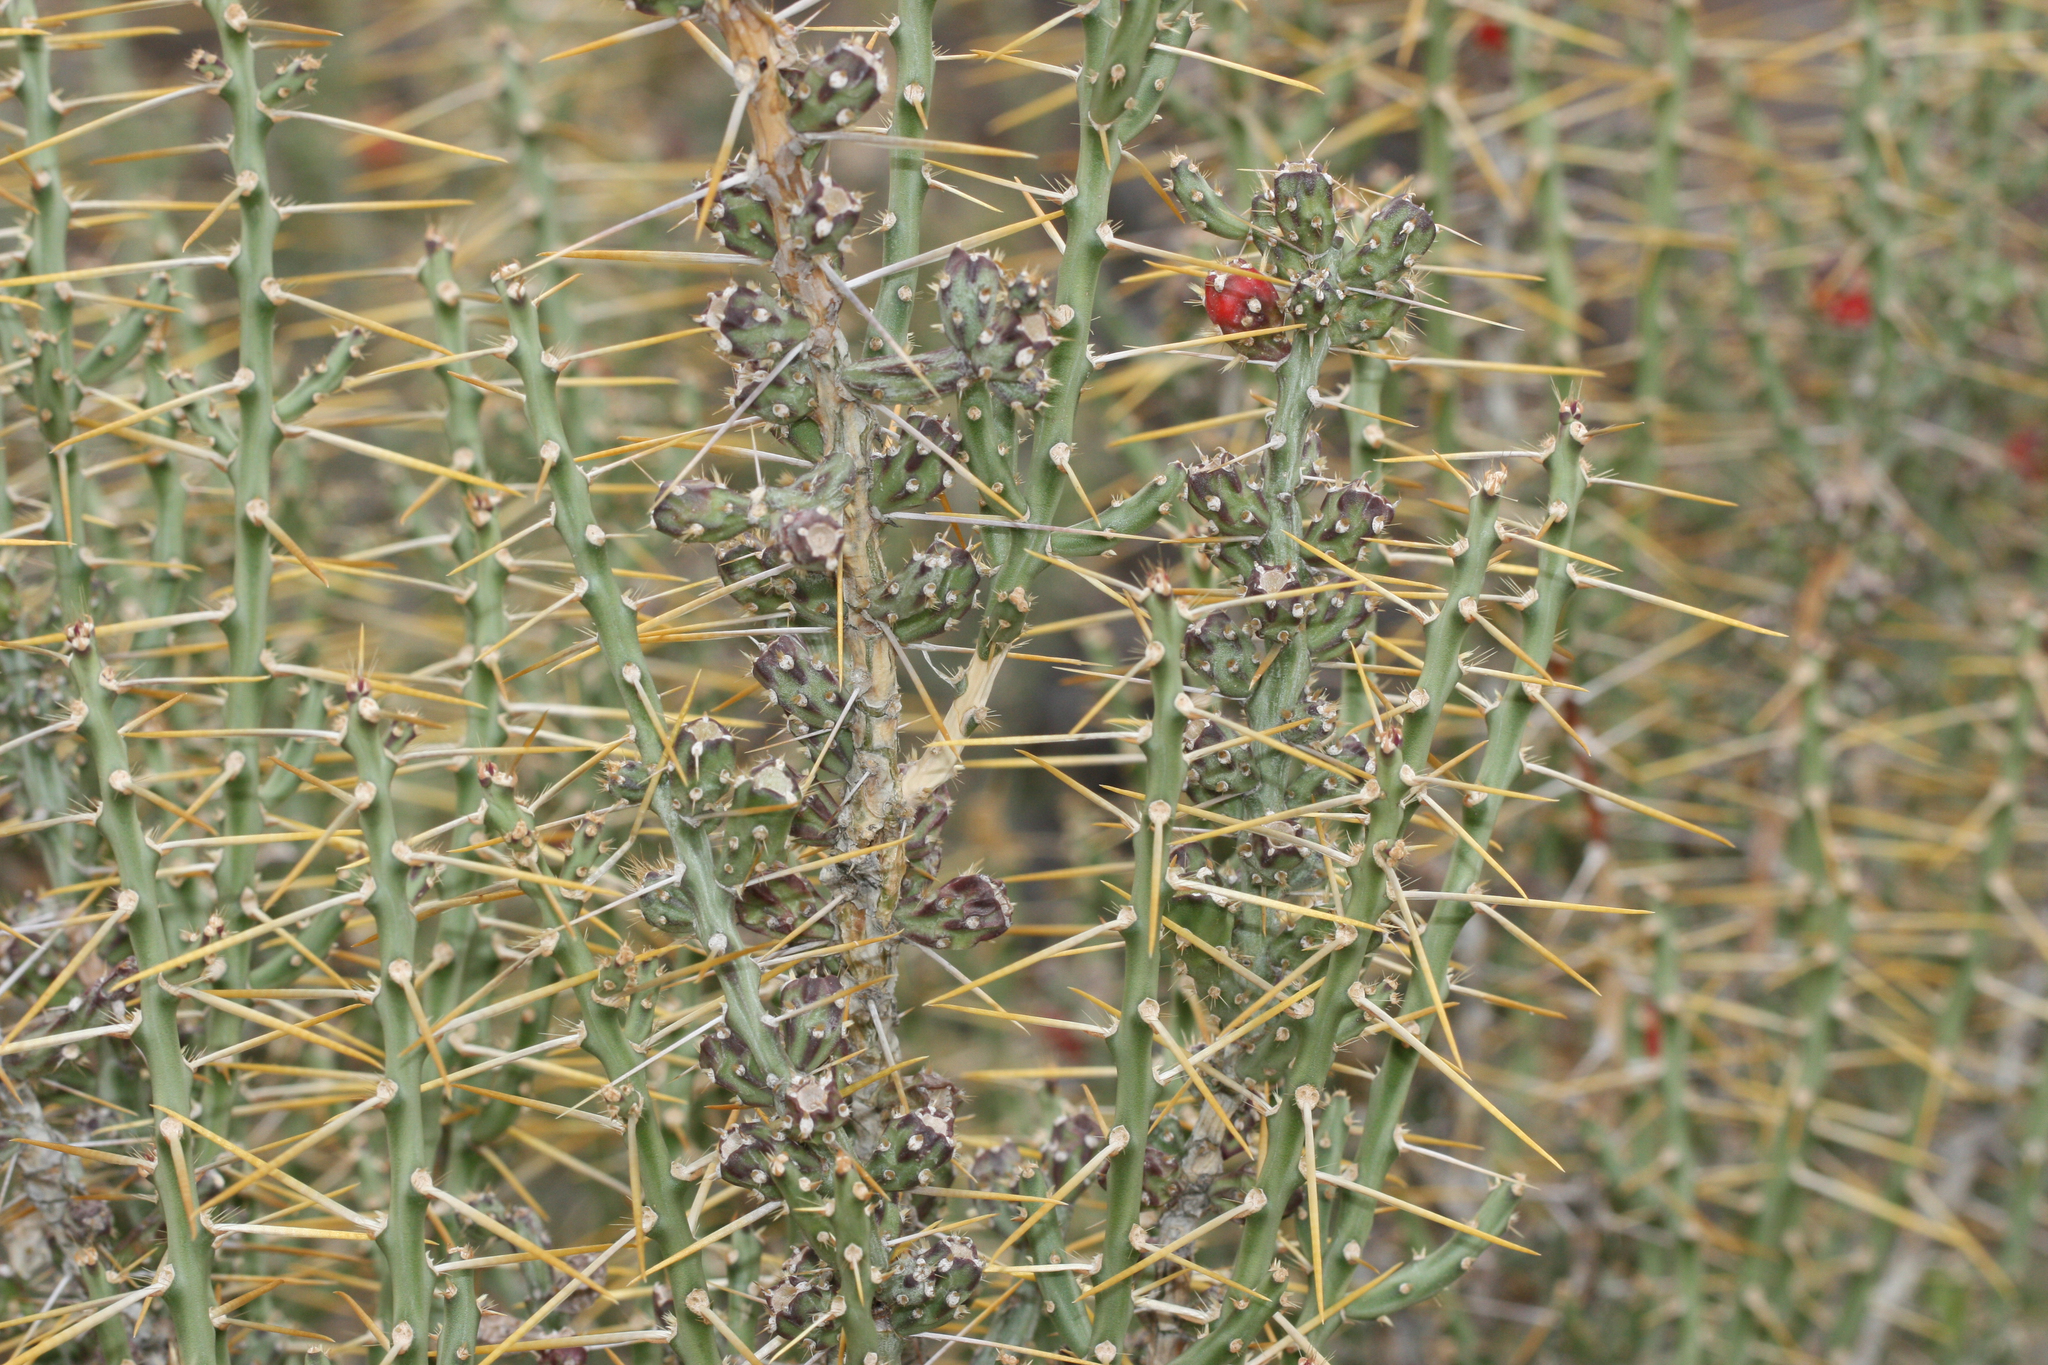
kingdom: Plantae
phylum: Tracheophyta
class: Magnoliopsida
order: Caryophyllales
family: Cactaceae
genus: Cylindropuntia
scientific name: Cylindropuntia leptocaulis
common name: Christmas cactus
